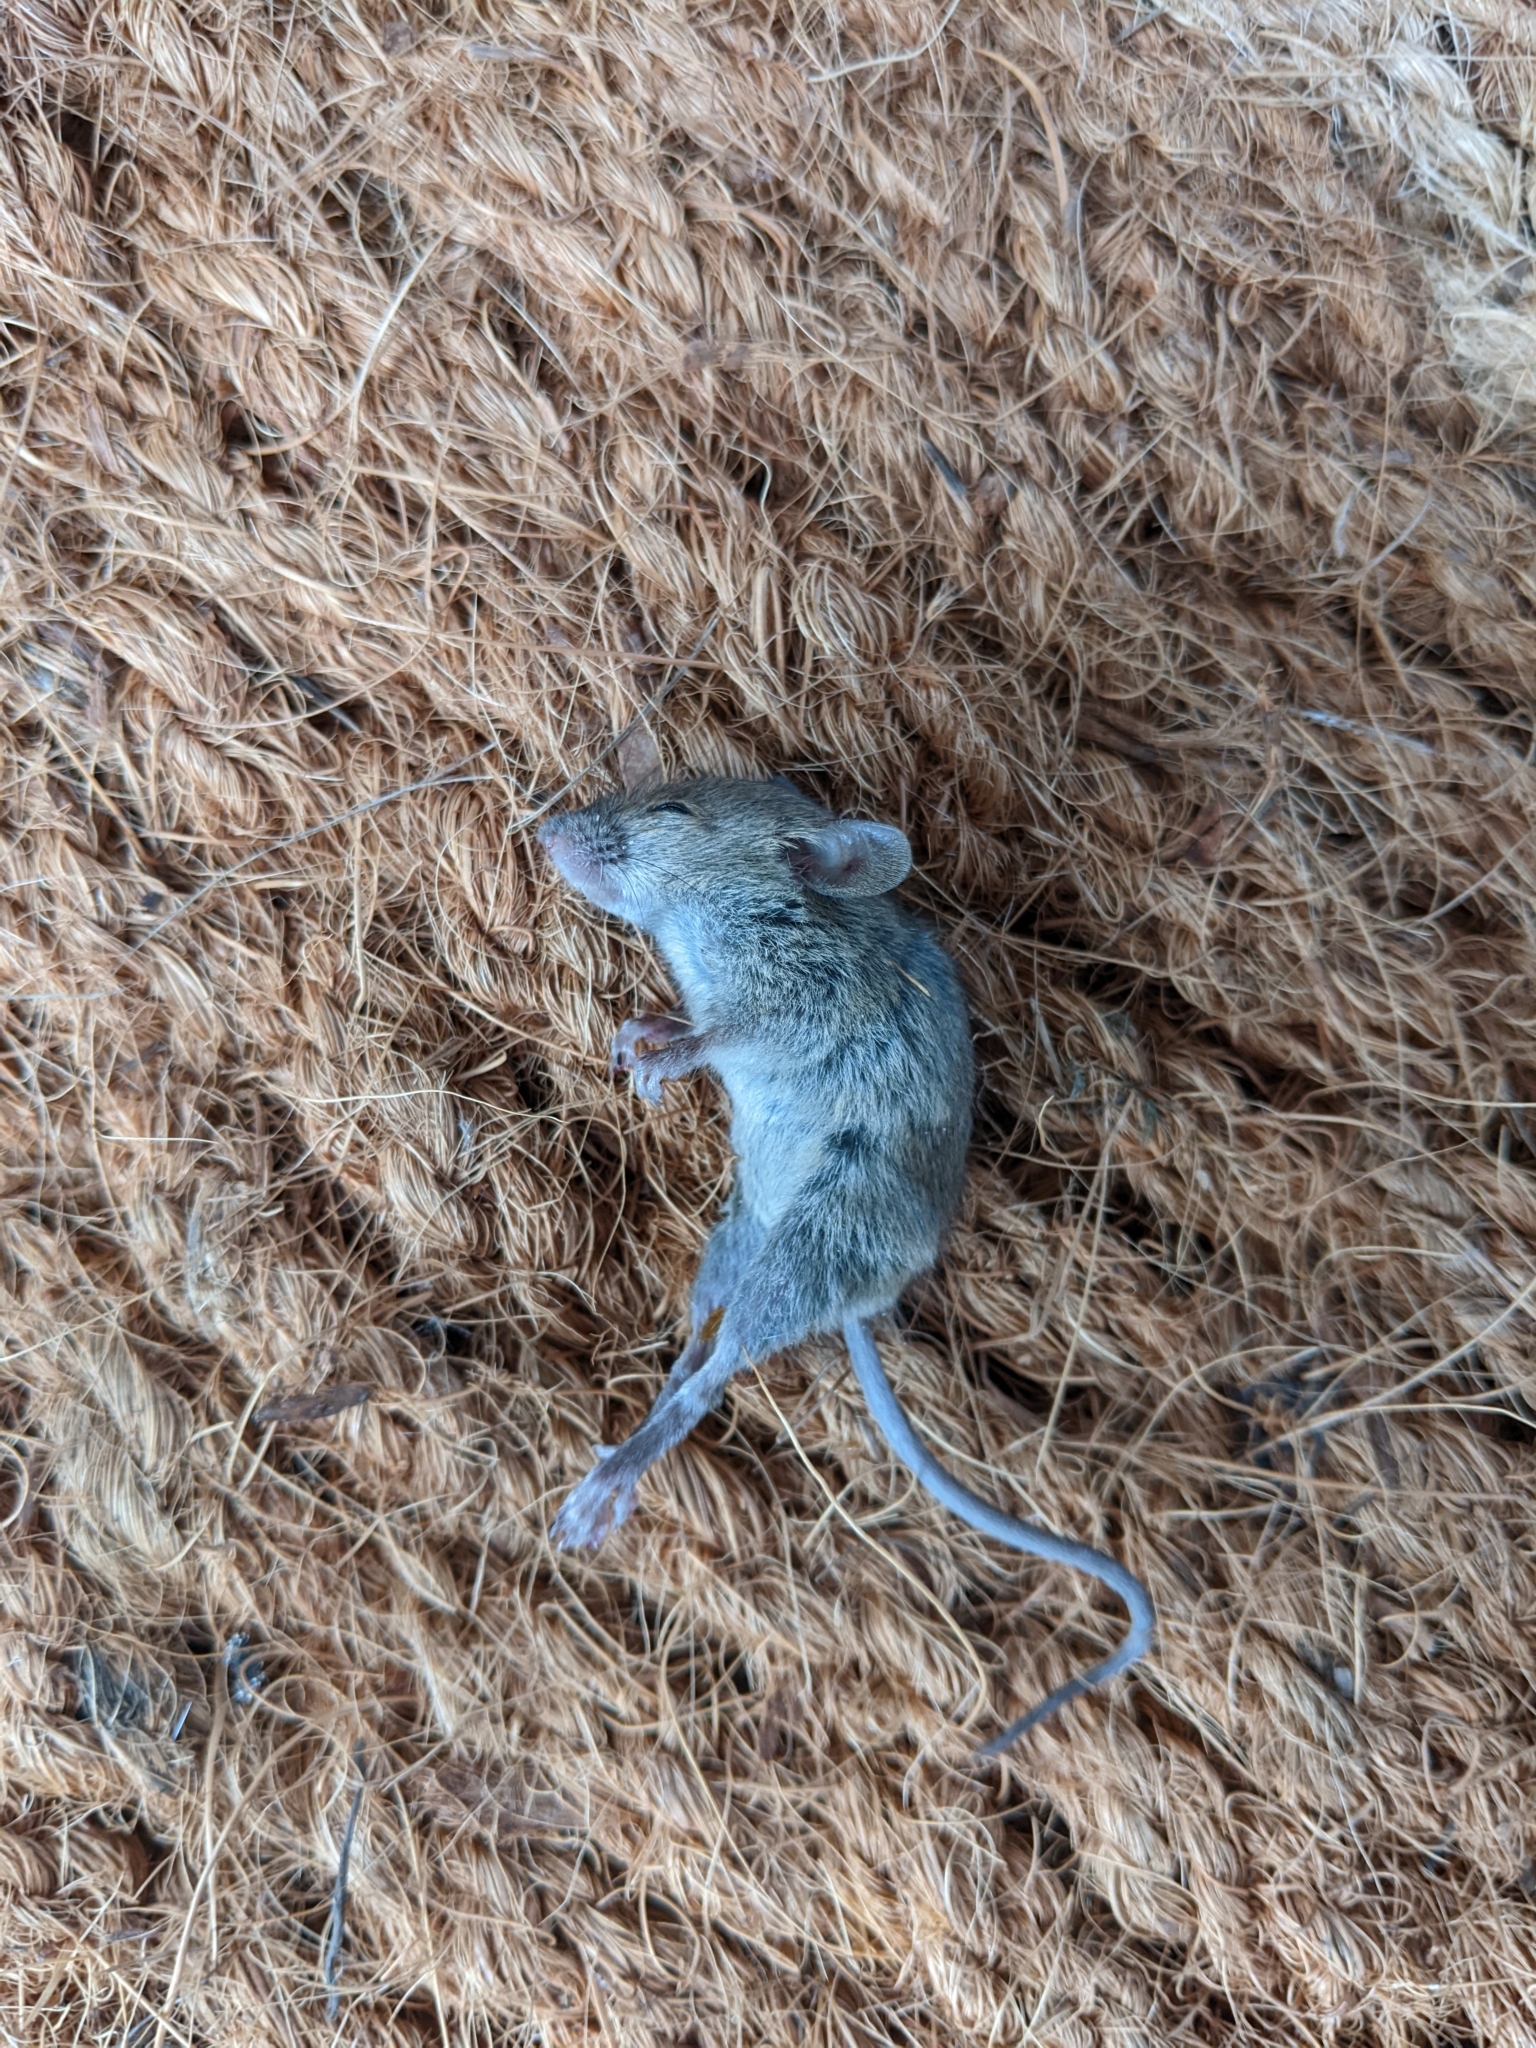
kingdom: Animalia
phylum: Chordata
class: Mammalia
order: Rodentia
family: Muridae
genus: Mus
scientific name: Mus musculus
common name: House mouse
